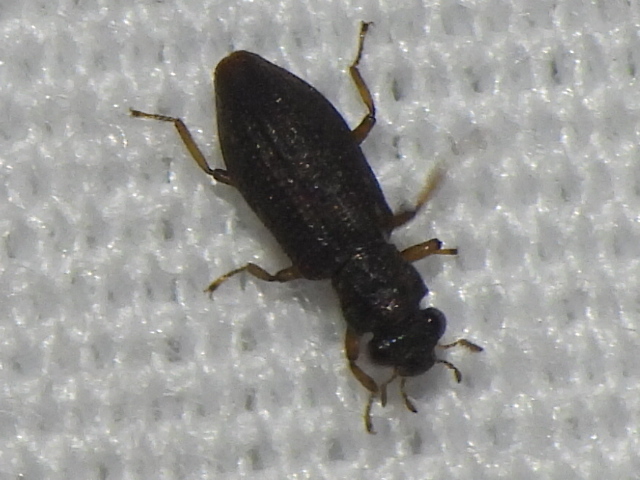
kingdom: Animalia
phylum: Arthropoda
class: Insecta
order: Coleoptera
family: Hydrochidae
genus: Hydrochus
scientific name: Hydrochus
